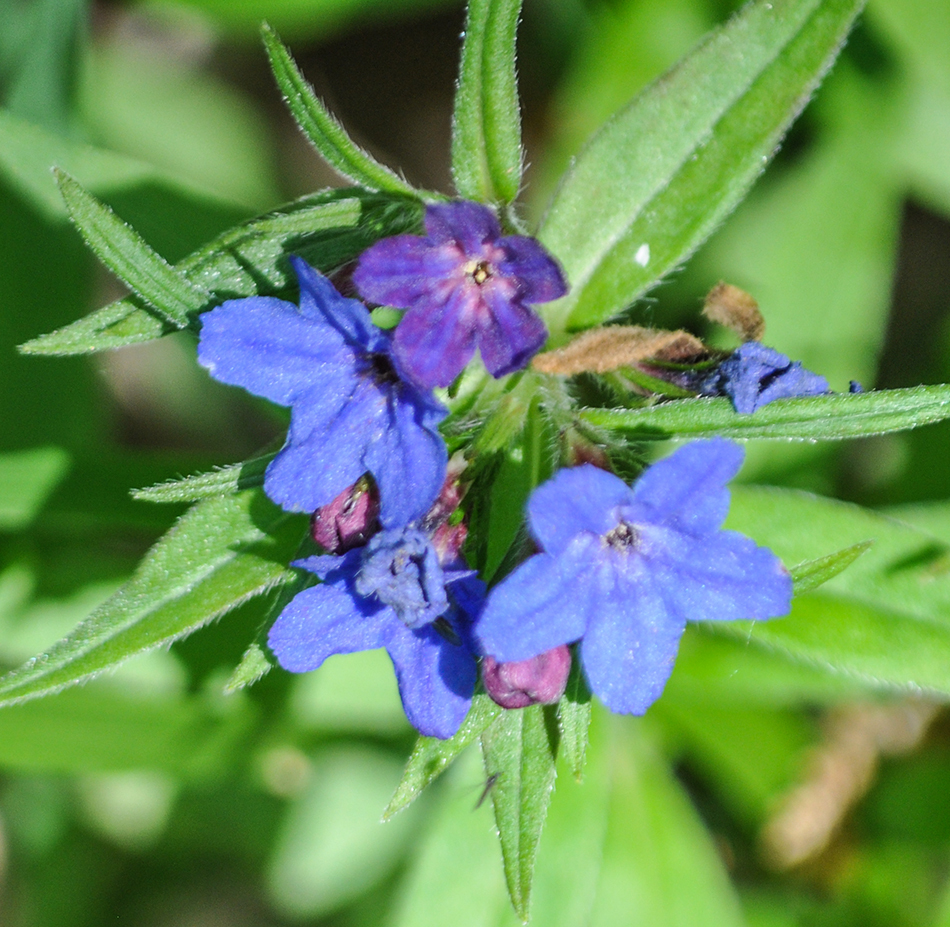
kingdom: Plantae
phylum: Tracheophyta
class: Magnoliopsida
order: Boraginales
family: Boraginaceae
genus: Aegonychon
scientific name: Aegonychon purpurocaeruleum
